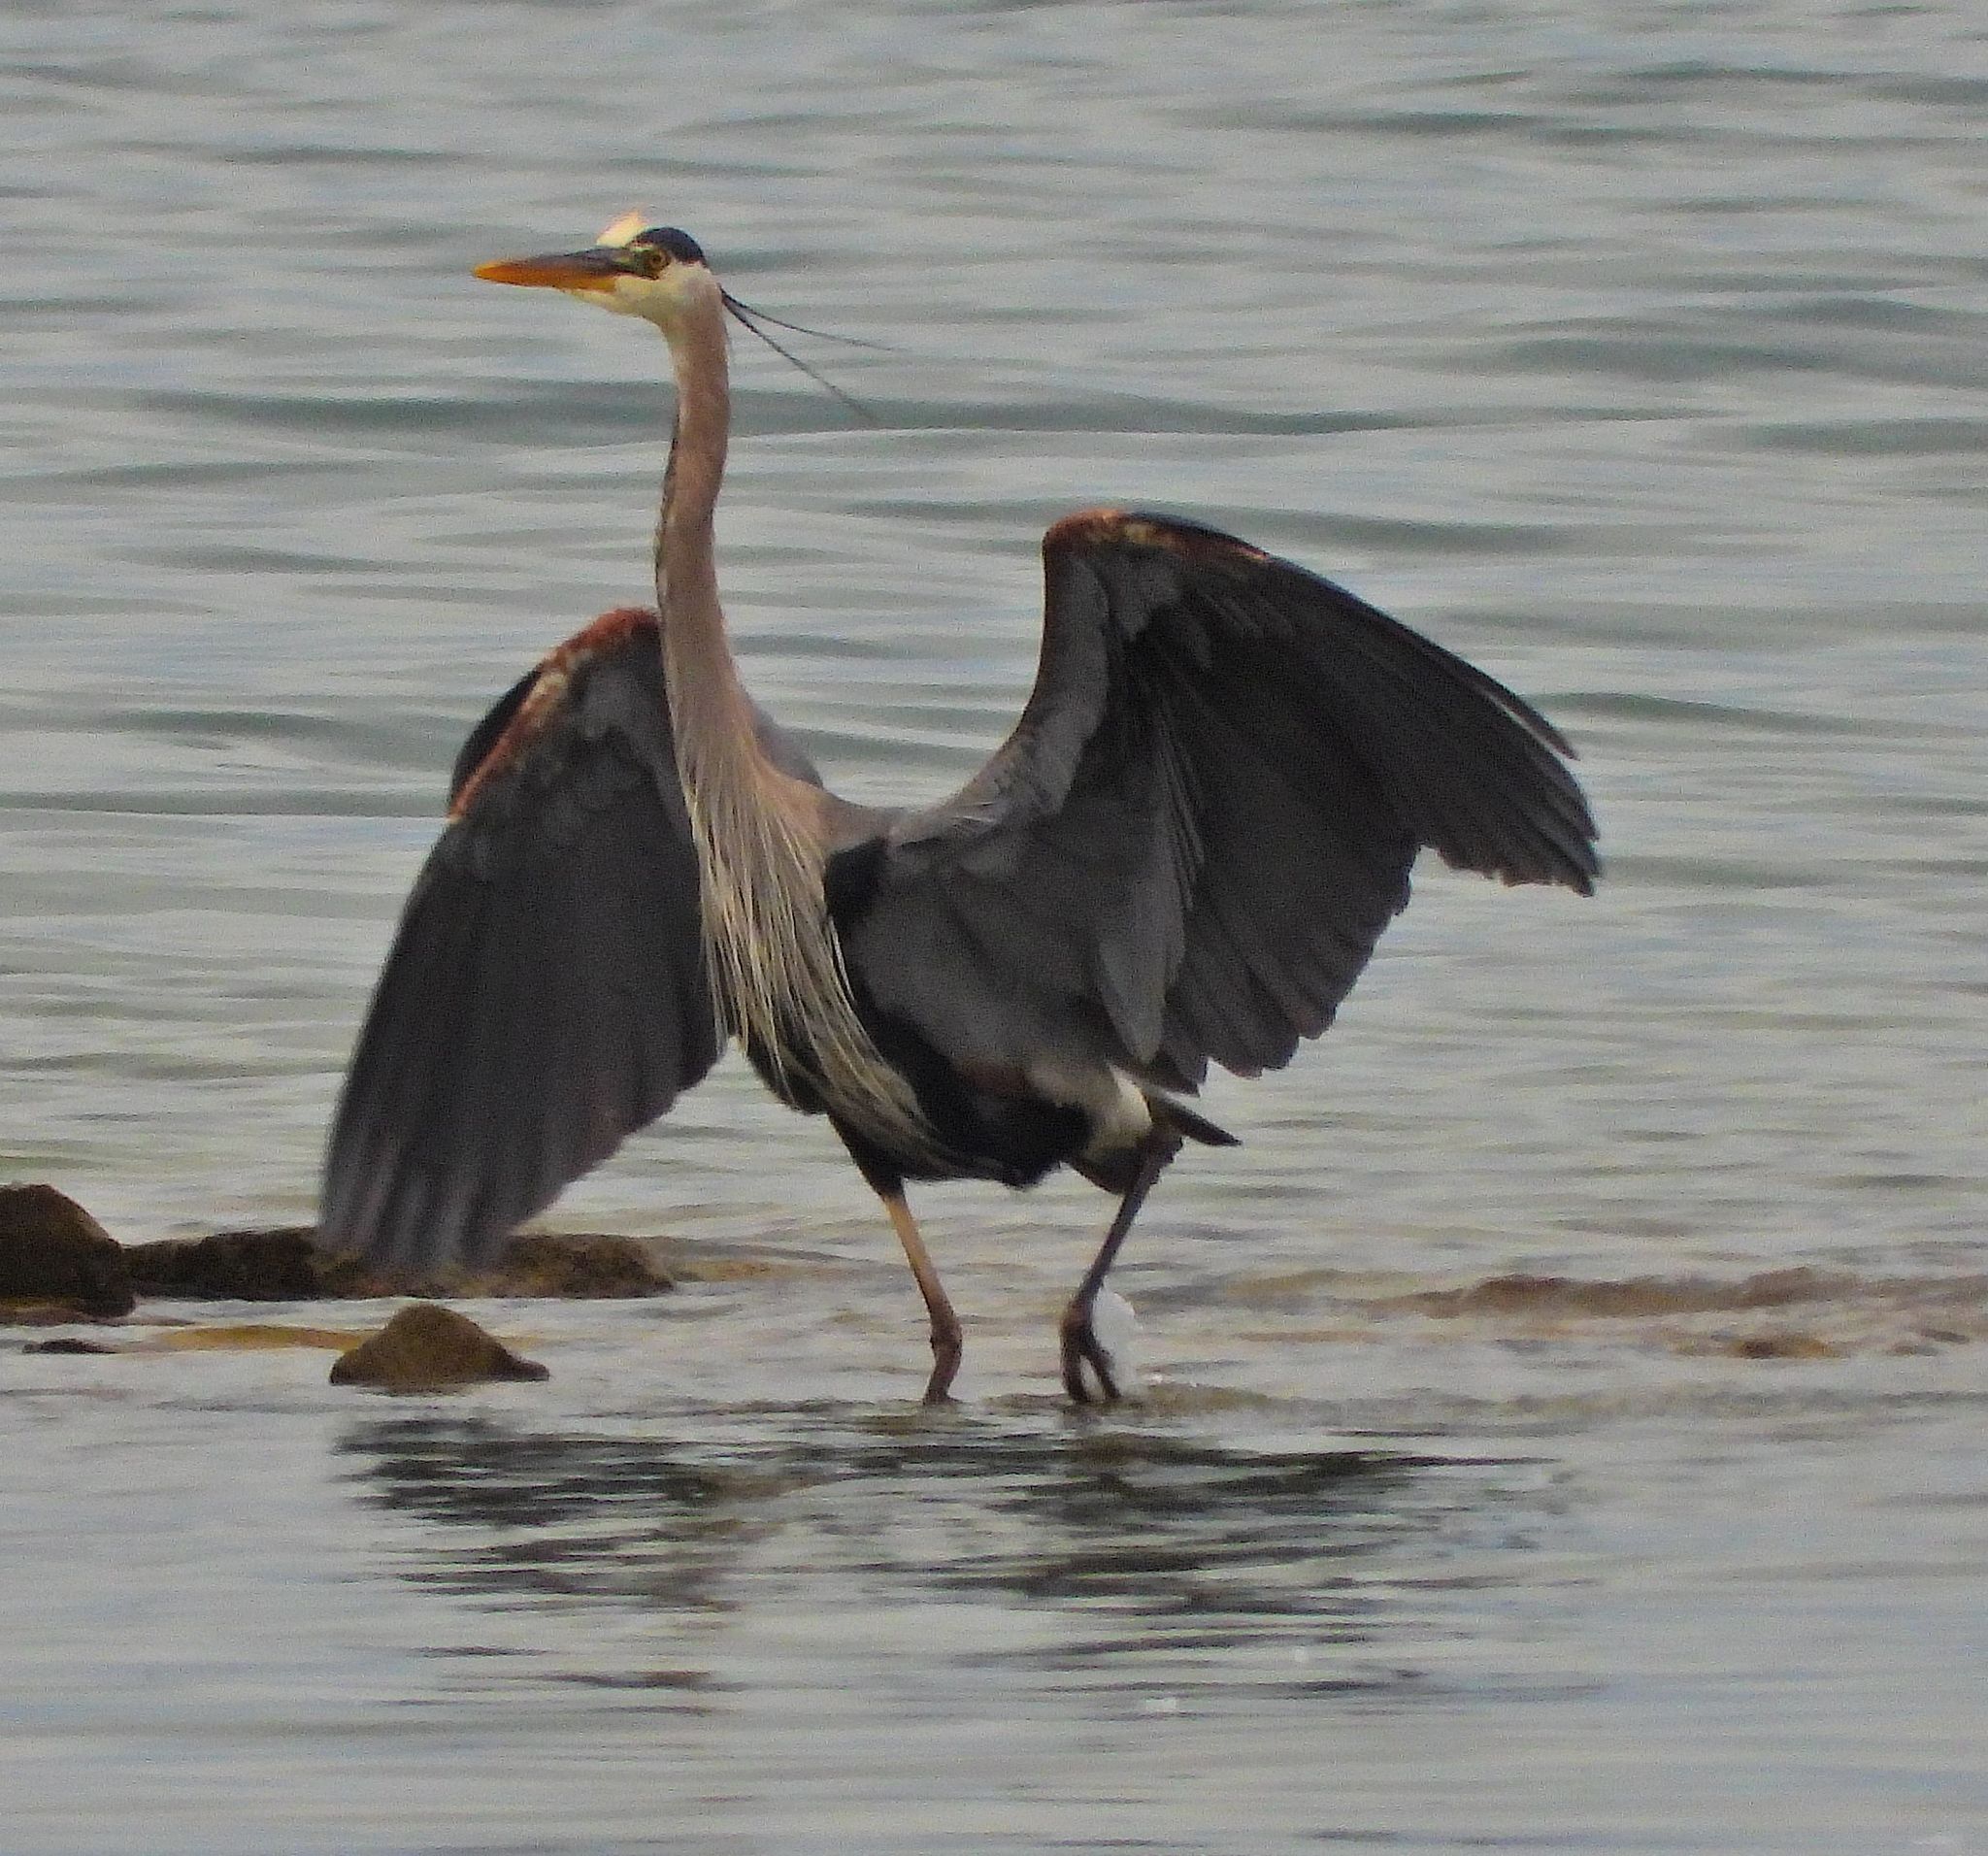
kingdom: Animalia
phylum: Chordata
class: Aves
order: Pelecaniformes
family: Ardeidae
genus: Ardea
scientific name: Ardea herodias
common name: Great blue heron
